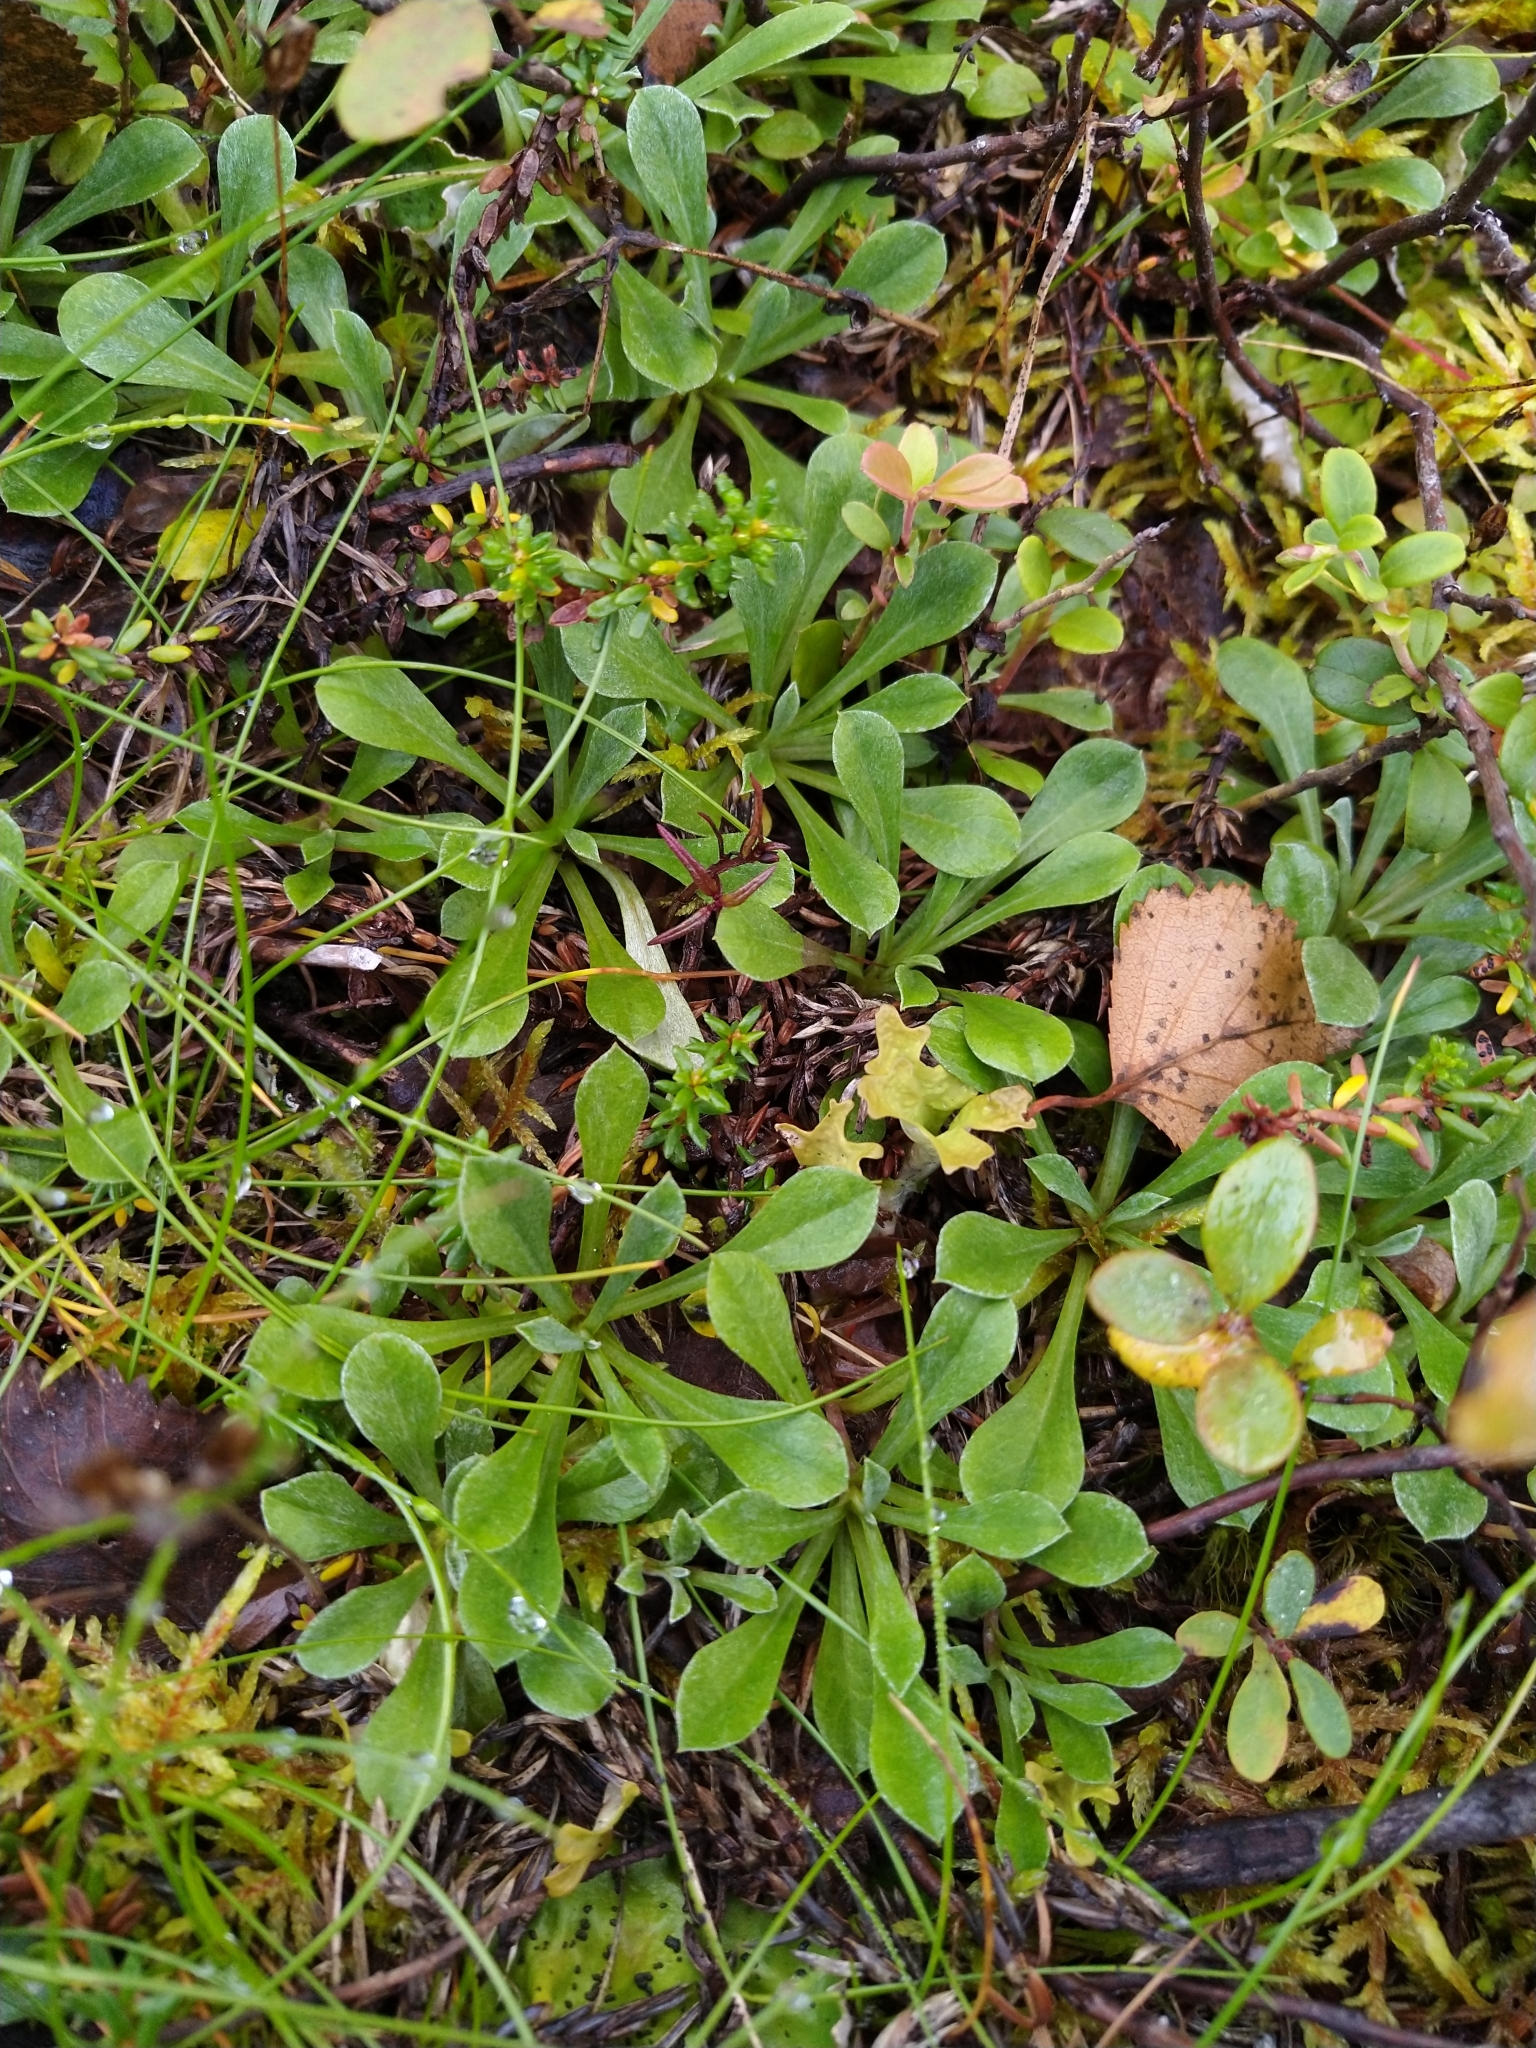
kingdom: Plantae
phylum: Tracheophyta
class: Magnoliopsida
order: Asterales
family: Asteraceae
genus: Antennaria
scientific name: Antennaria dioica
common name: Mountain everlasting
